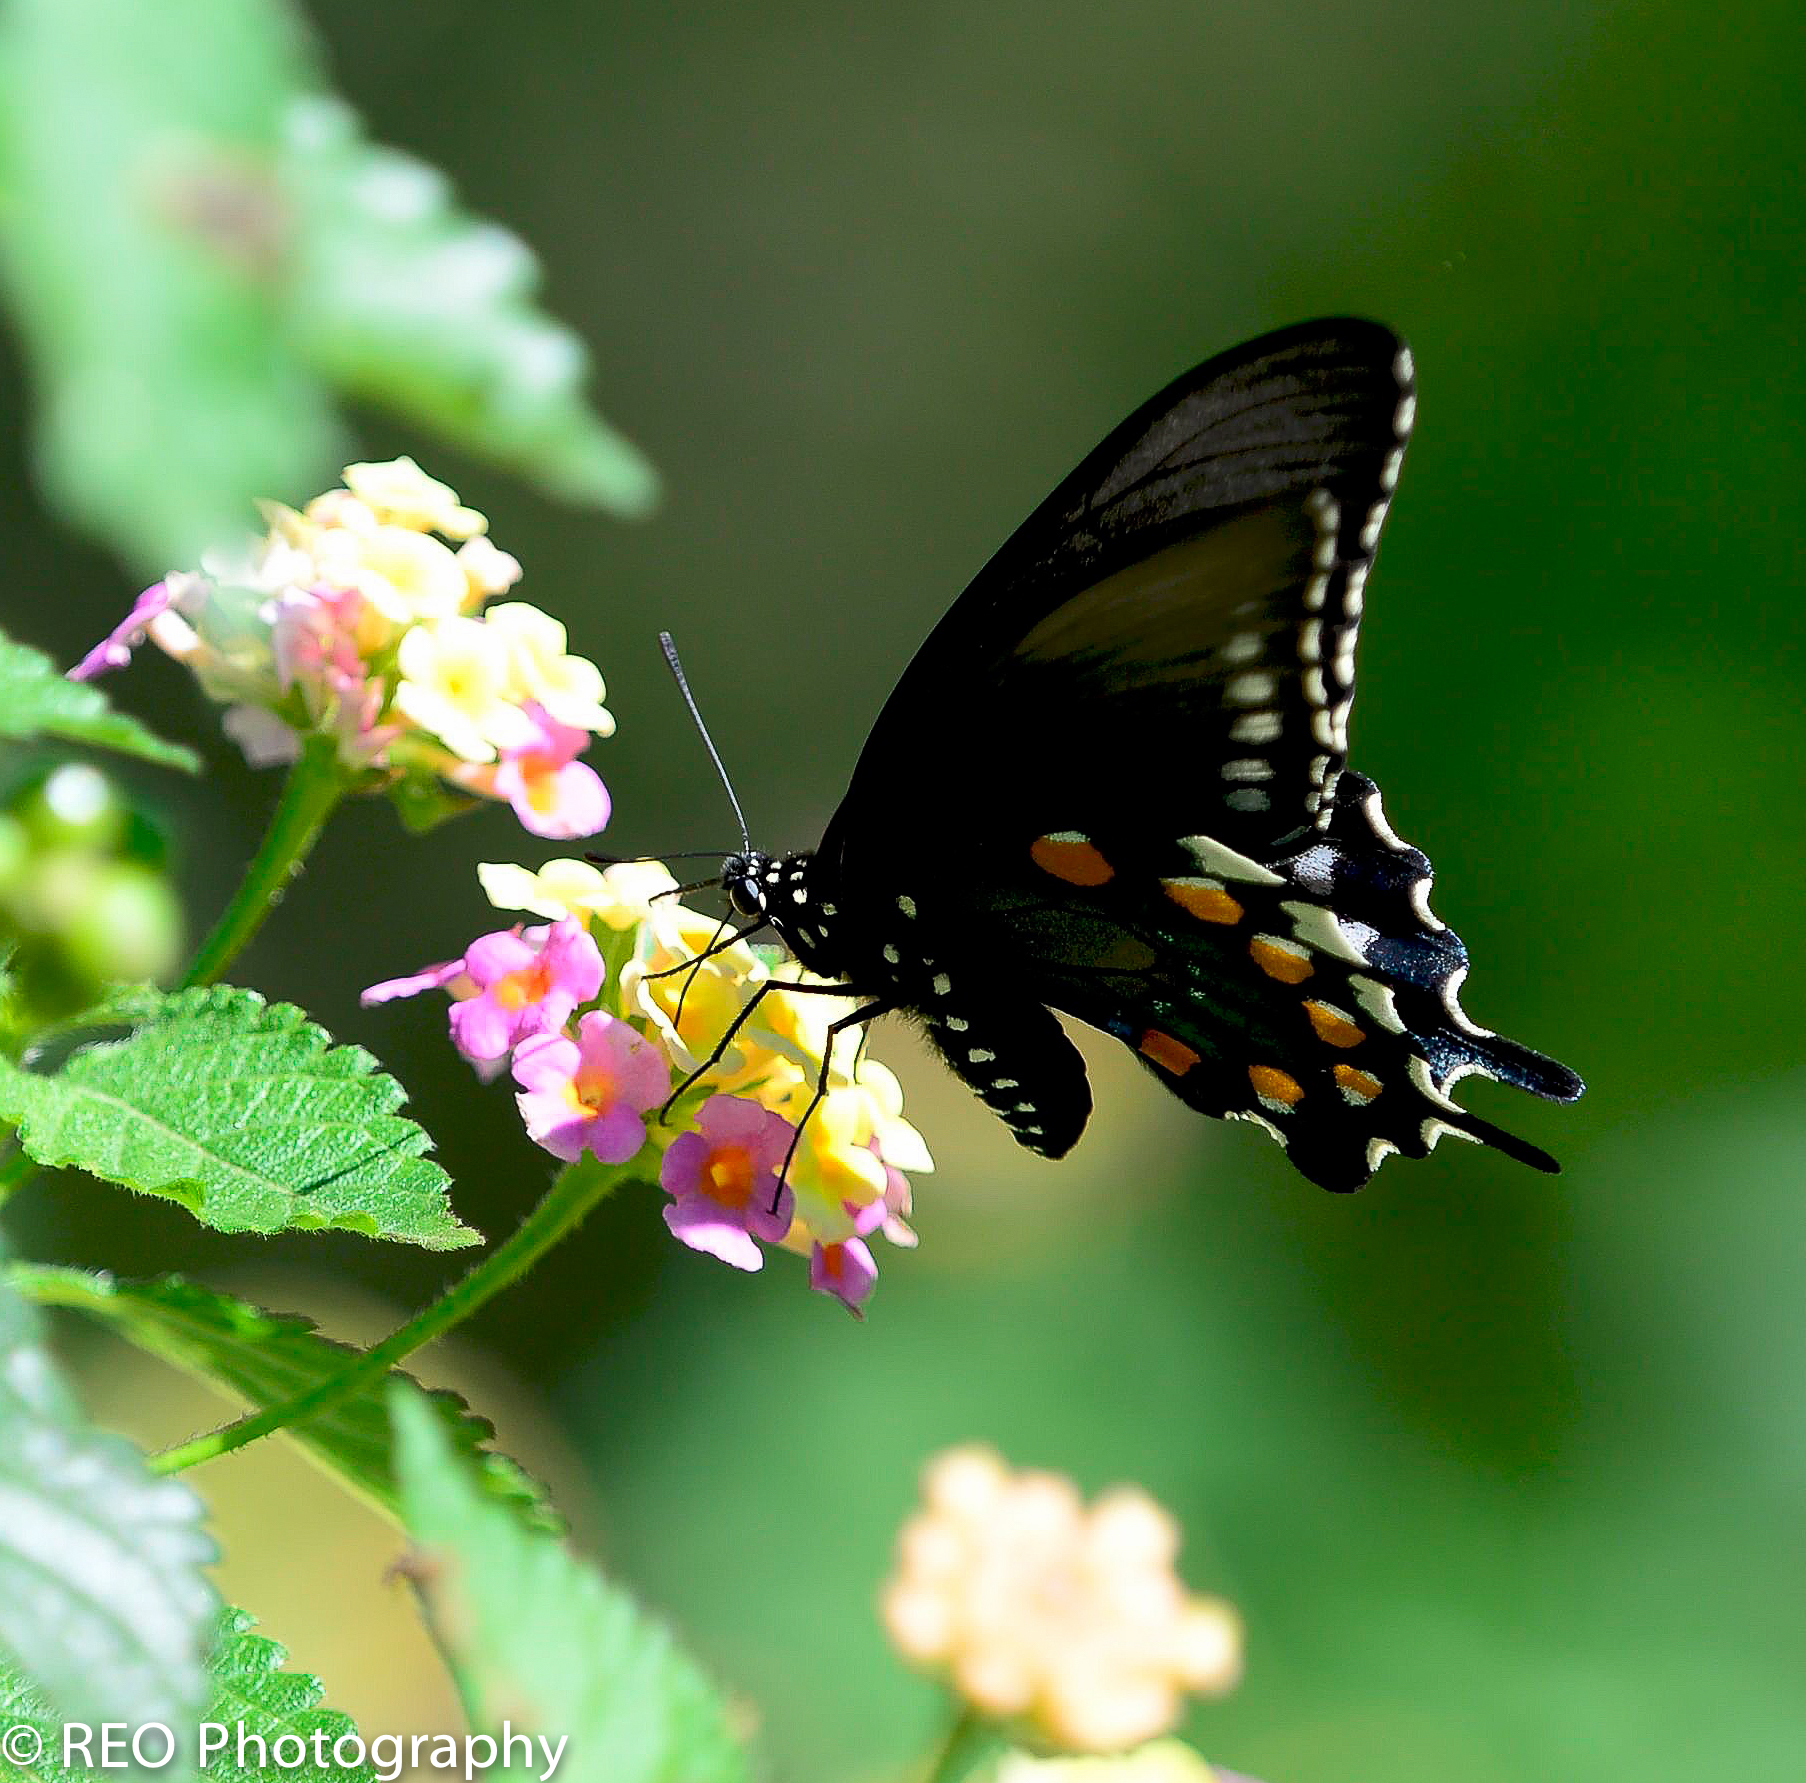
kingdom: Animalia
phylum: Arthropoda
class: Insecta
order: Lepidoptera
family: Papilionidae
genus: Battus
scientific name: Battus philenor
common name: Pipevine swallowtail
